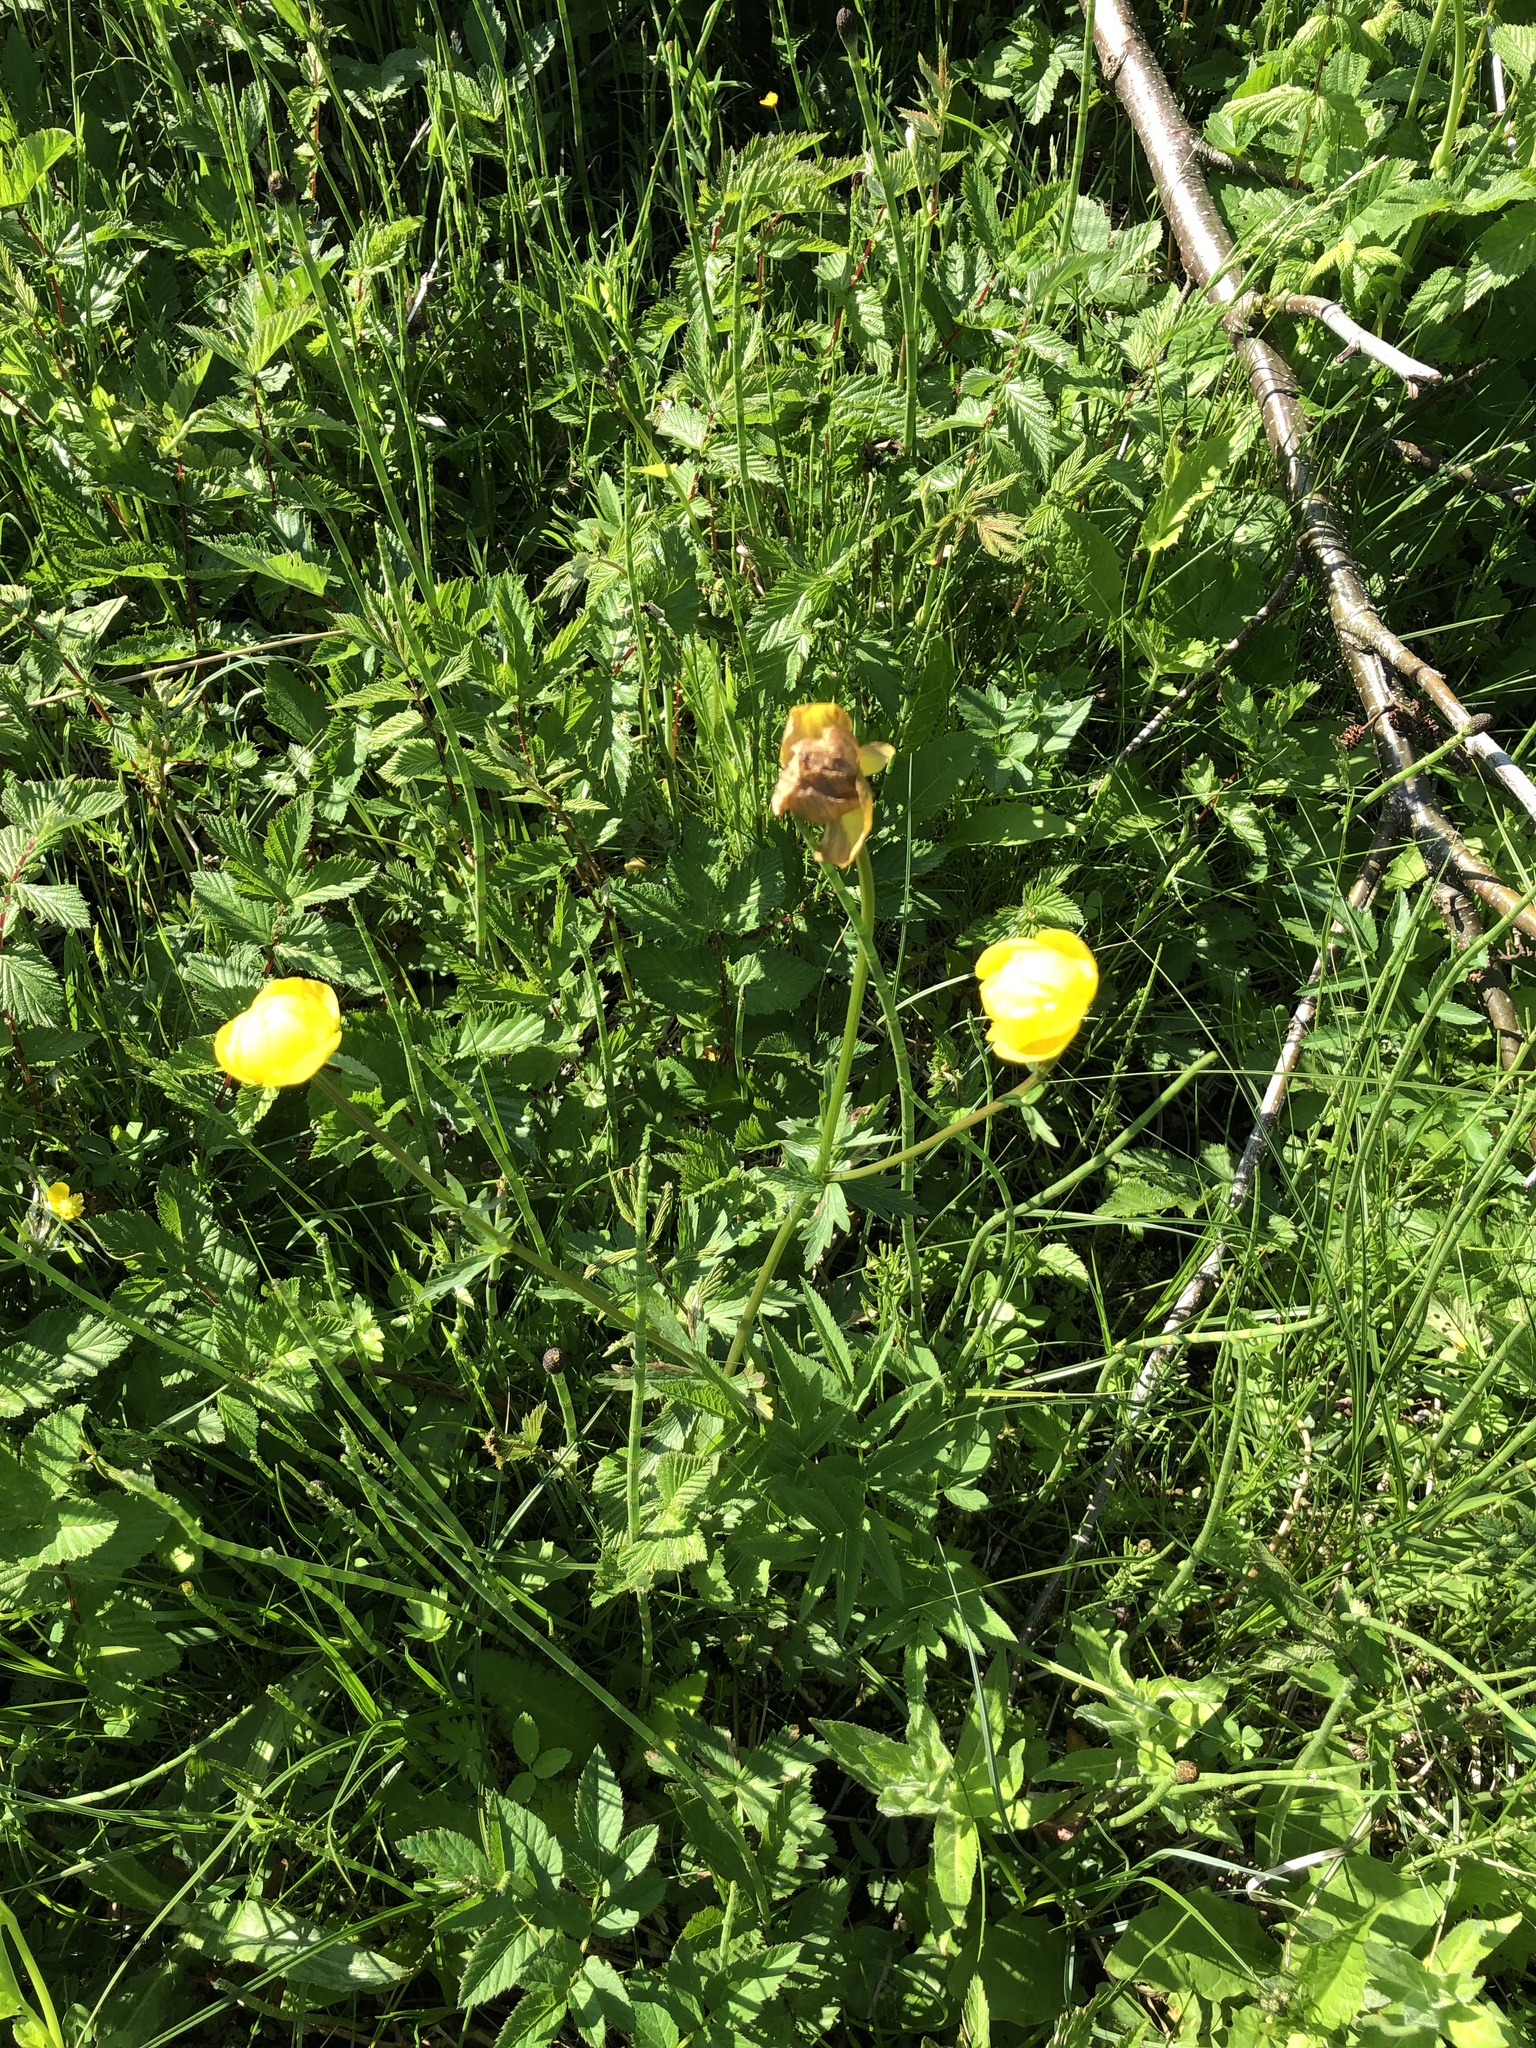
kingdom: Plantae
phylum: Tracheophyta
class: Magnoliopsida
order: Ranunculales
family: Ranunculaceae
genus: Trollius
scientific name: Trollius europaeus
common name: European globeflower
